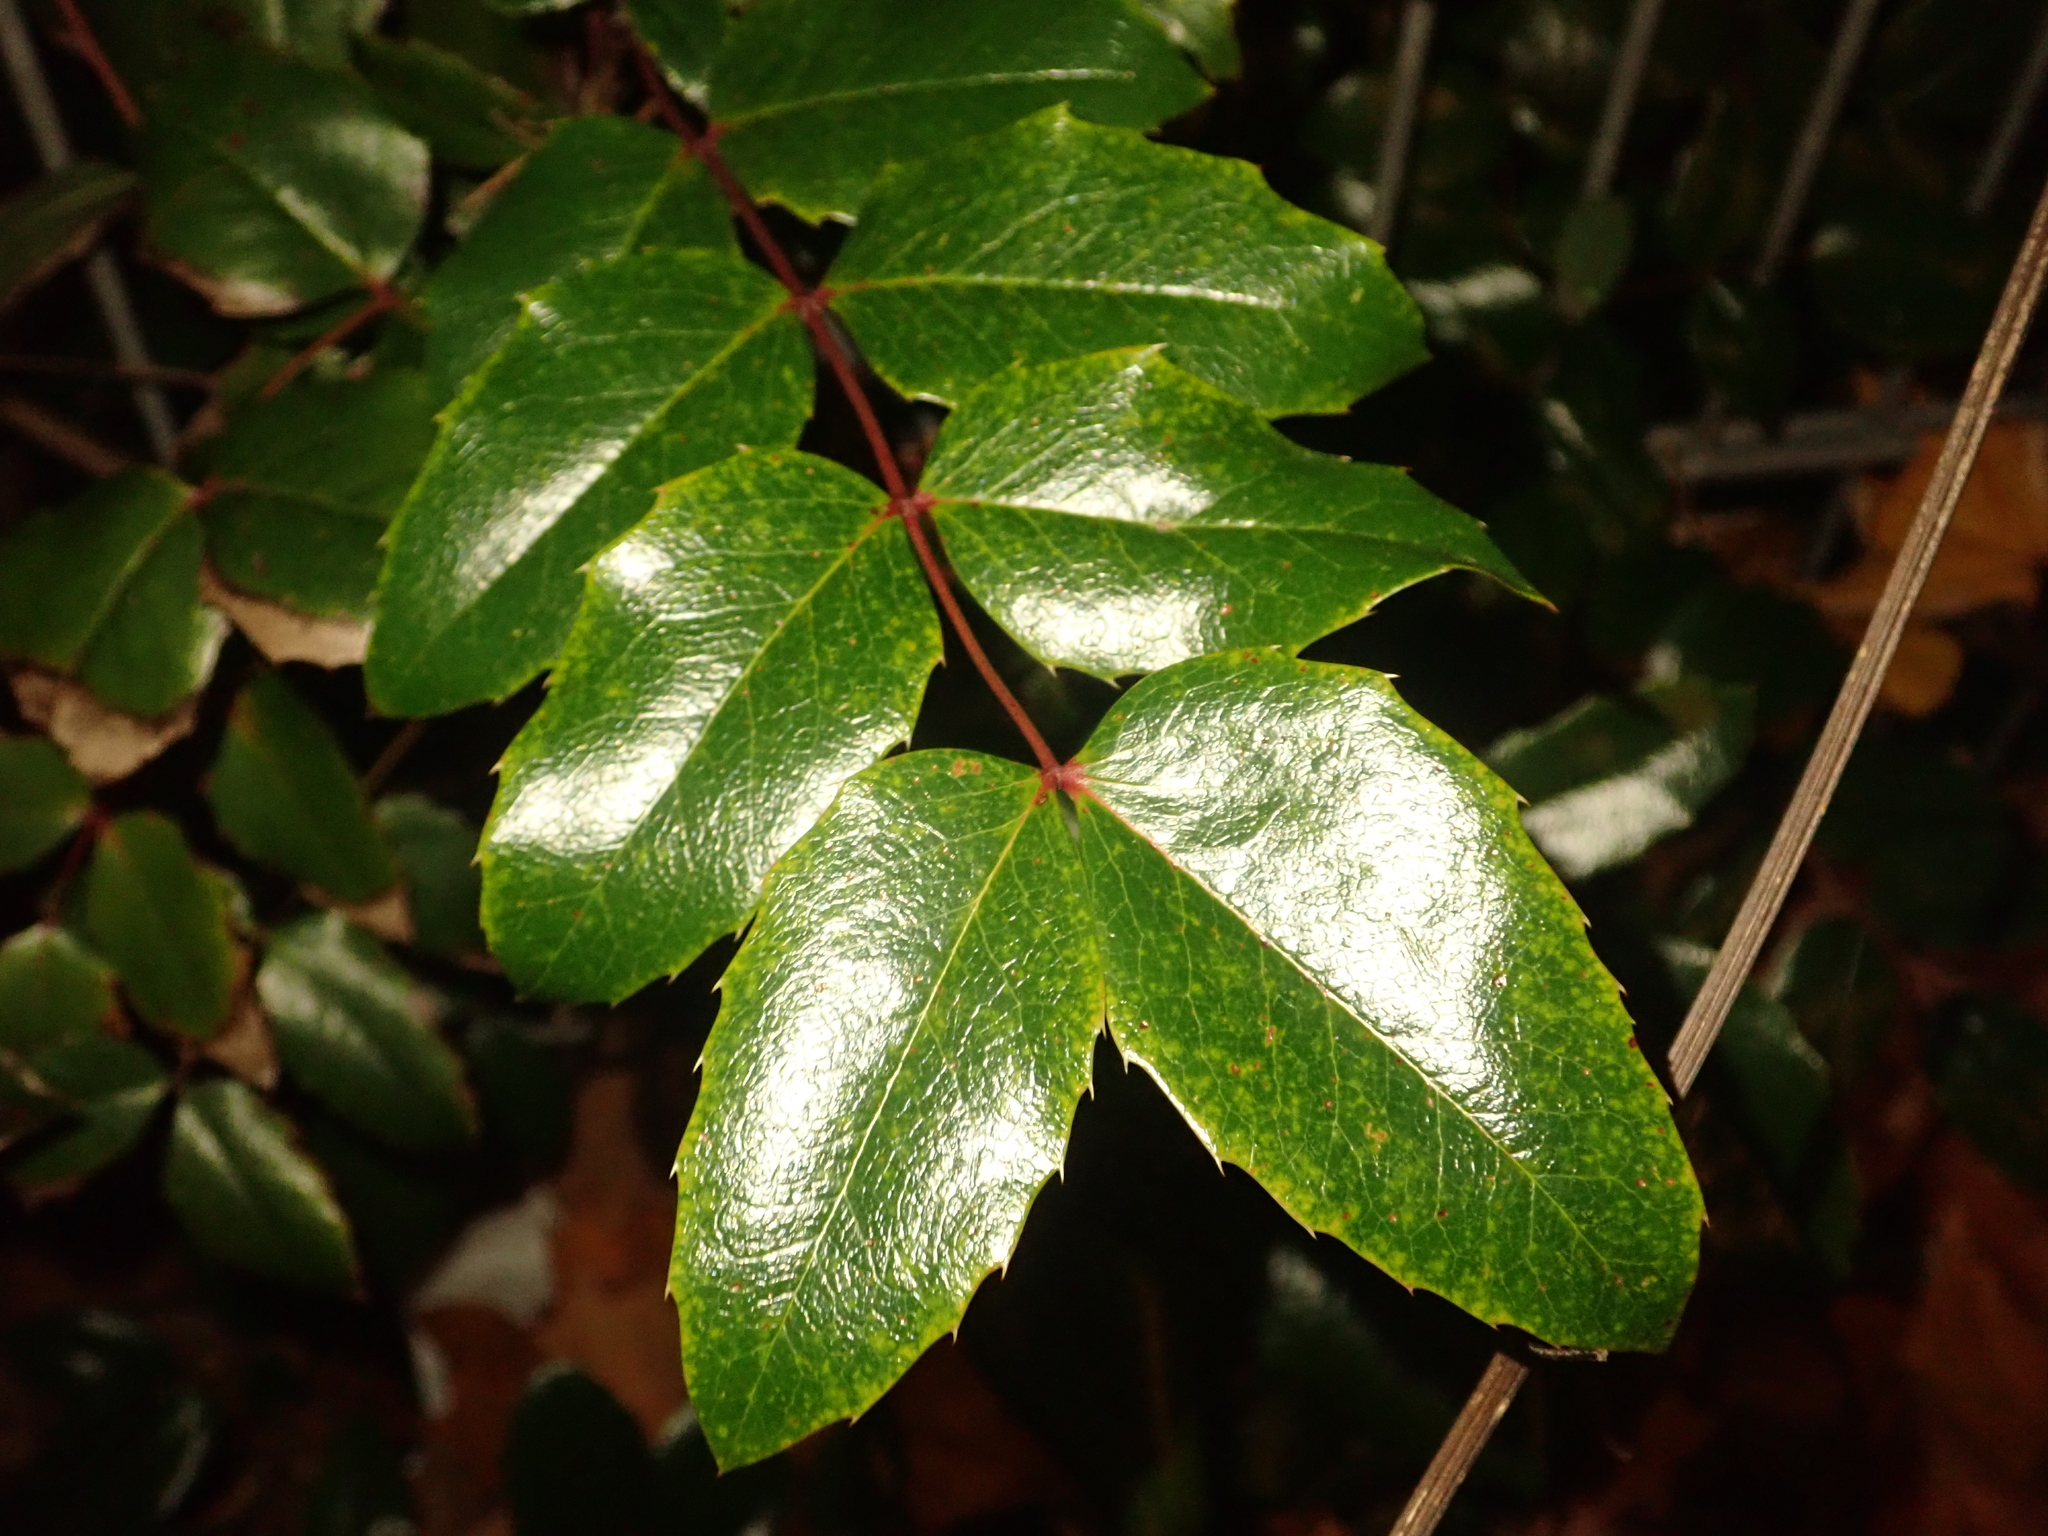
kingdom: Plantae
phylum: Tracheophyta
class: Magnoliopsida
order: Ranunculales
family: Berberidaceae
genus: Mahonia
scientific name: Mahonia aquifolium
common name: Oregon-grape
